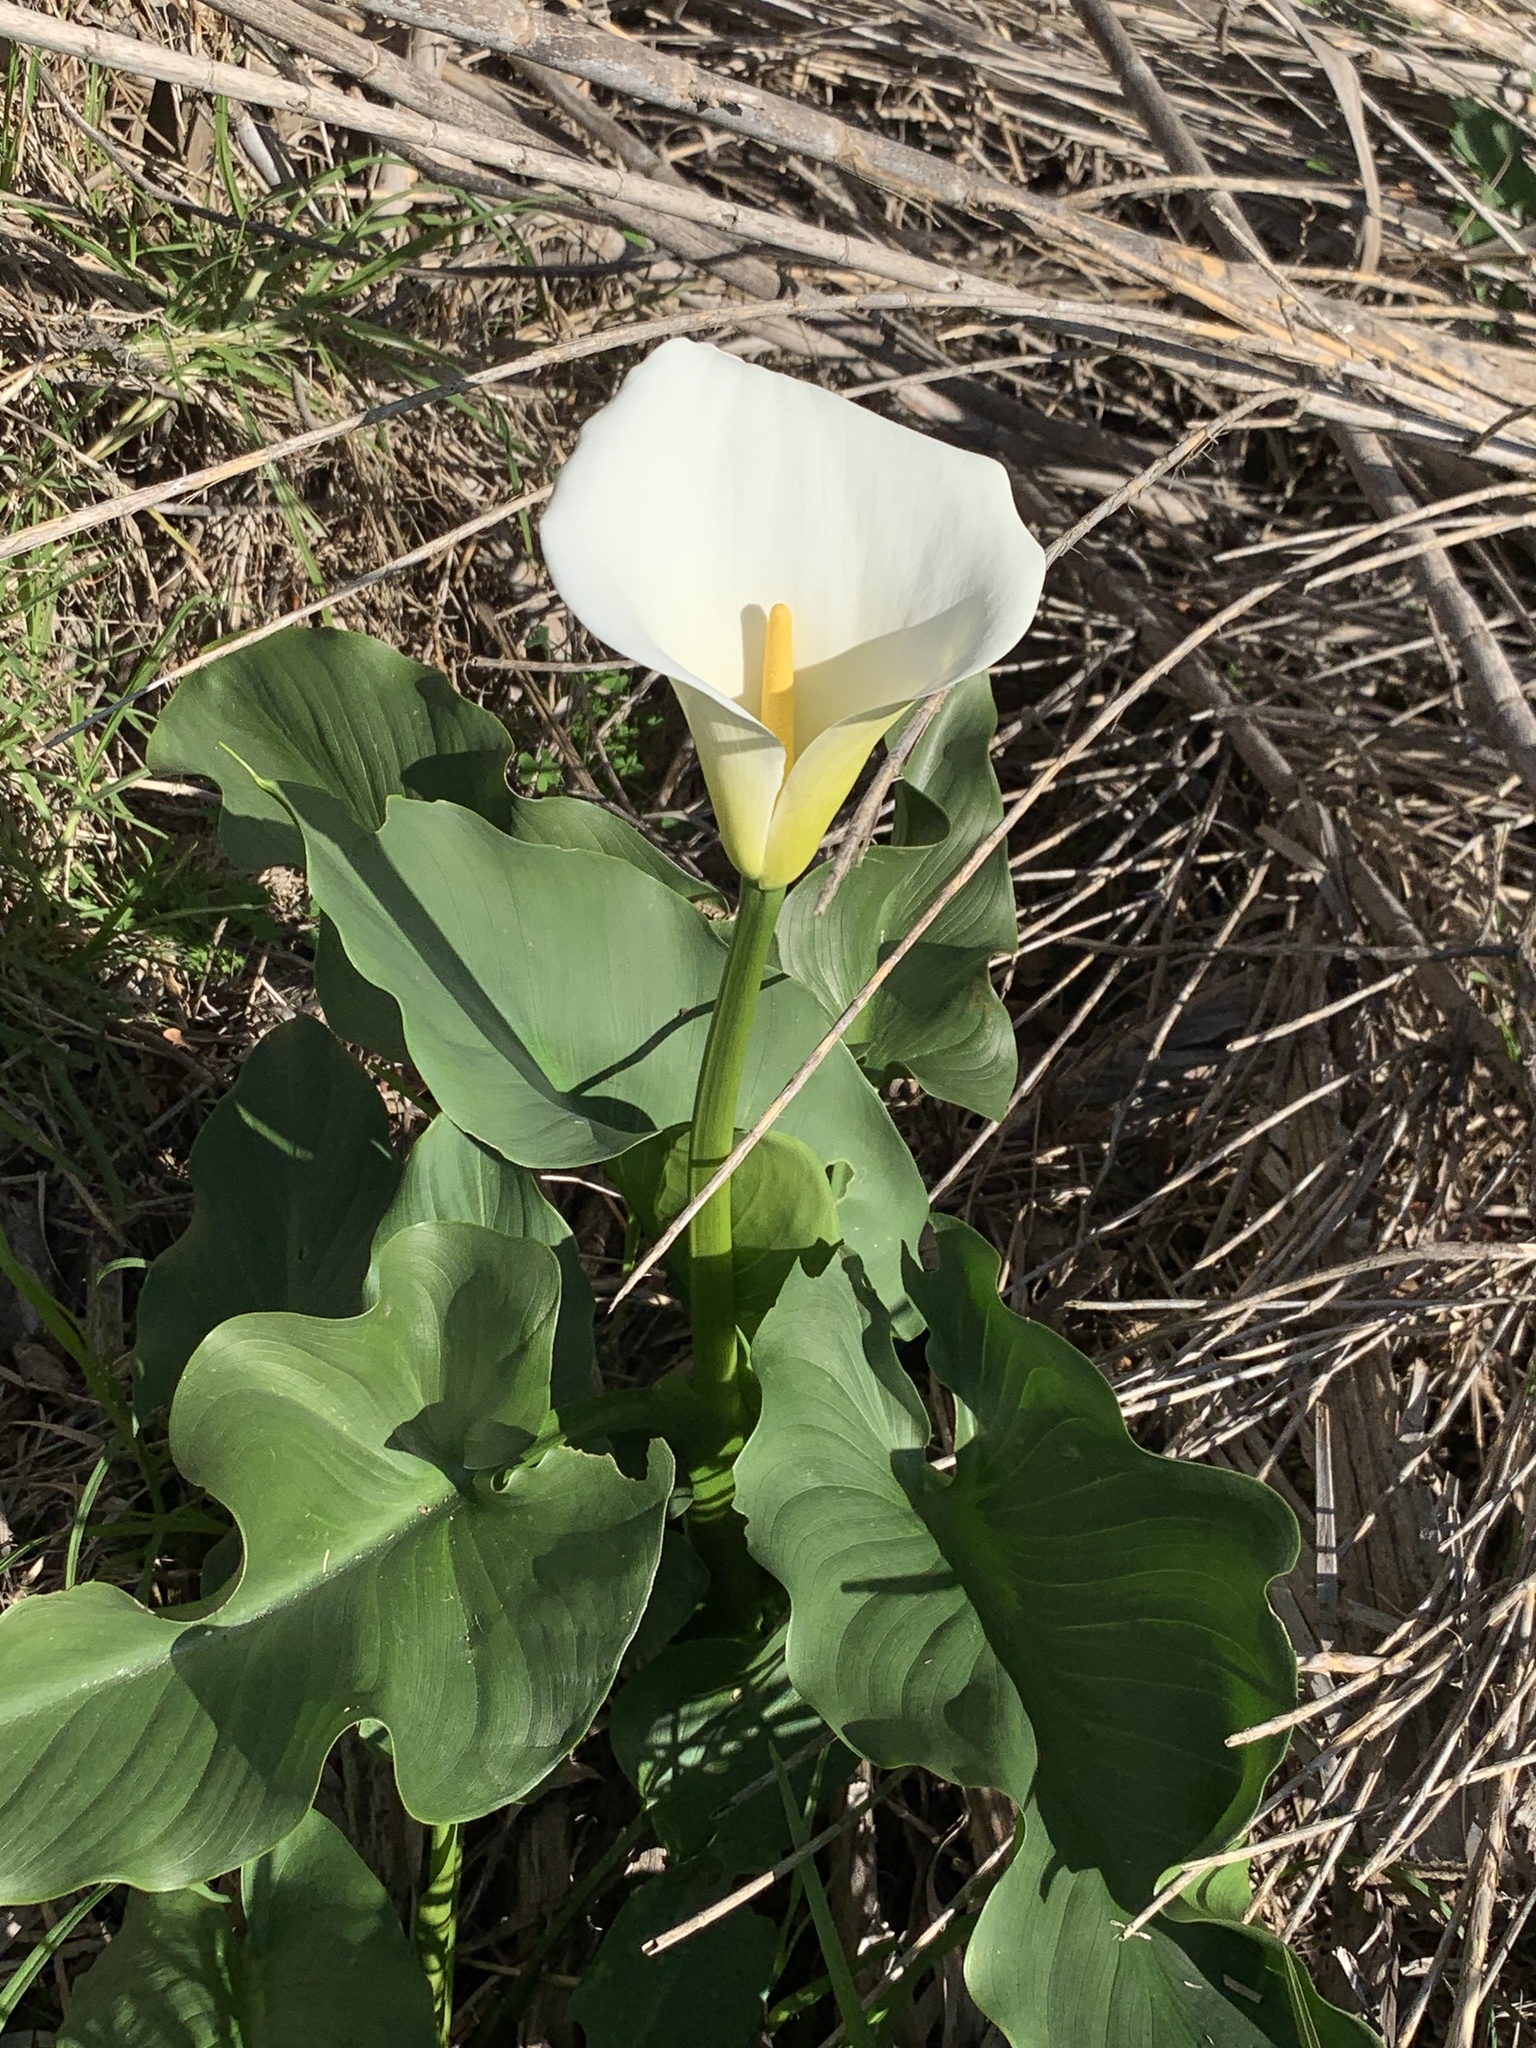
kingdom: Plantae
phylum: Tracheophyta
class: Liliopsida
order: Alismatales
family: Araceae
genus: Zantedeschia
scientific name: Zantedeschia aethiopica
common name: Altar-lily
